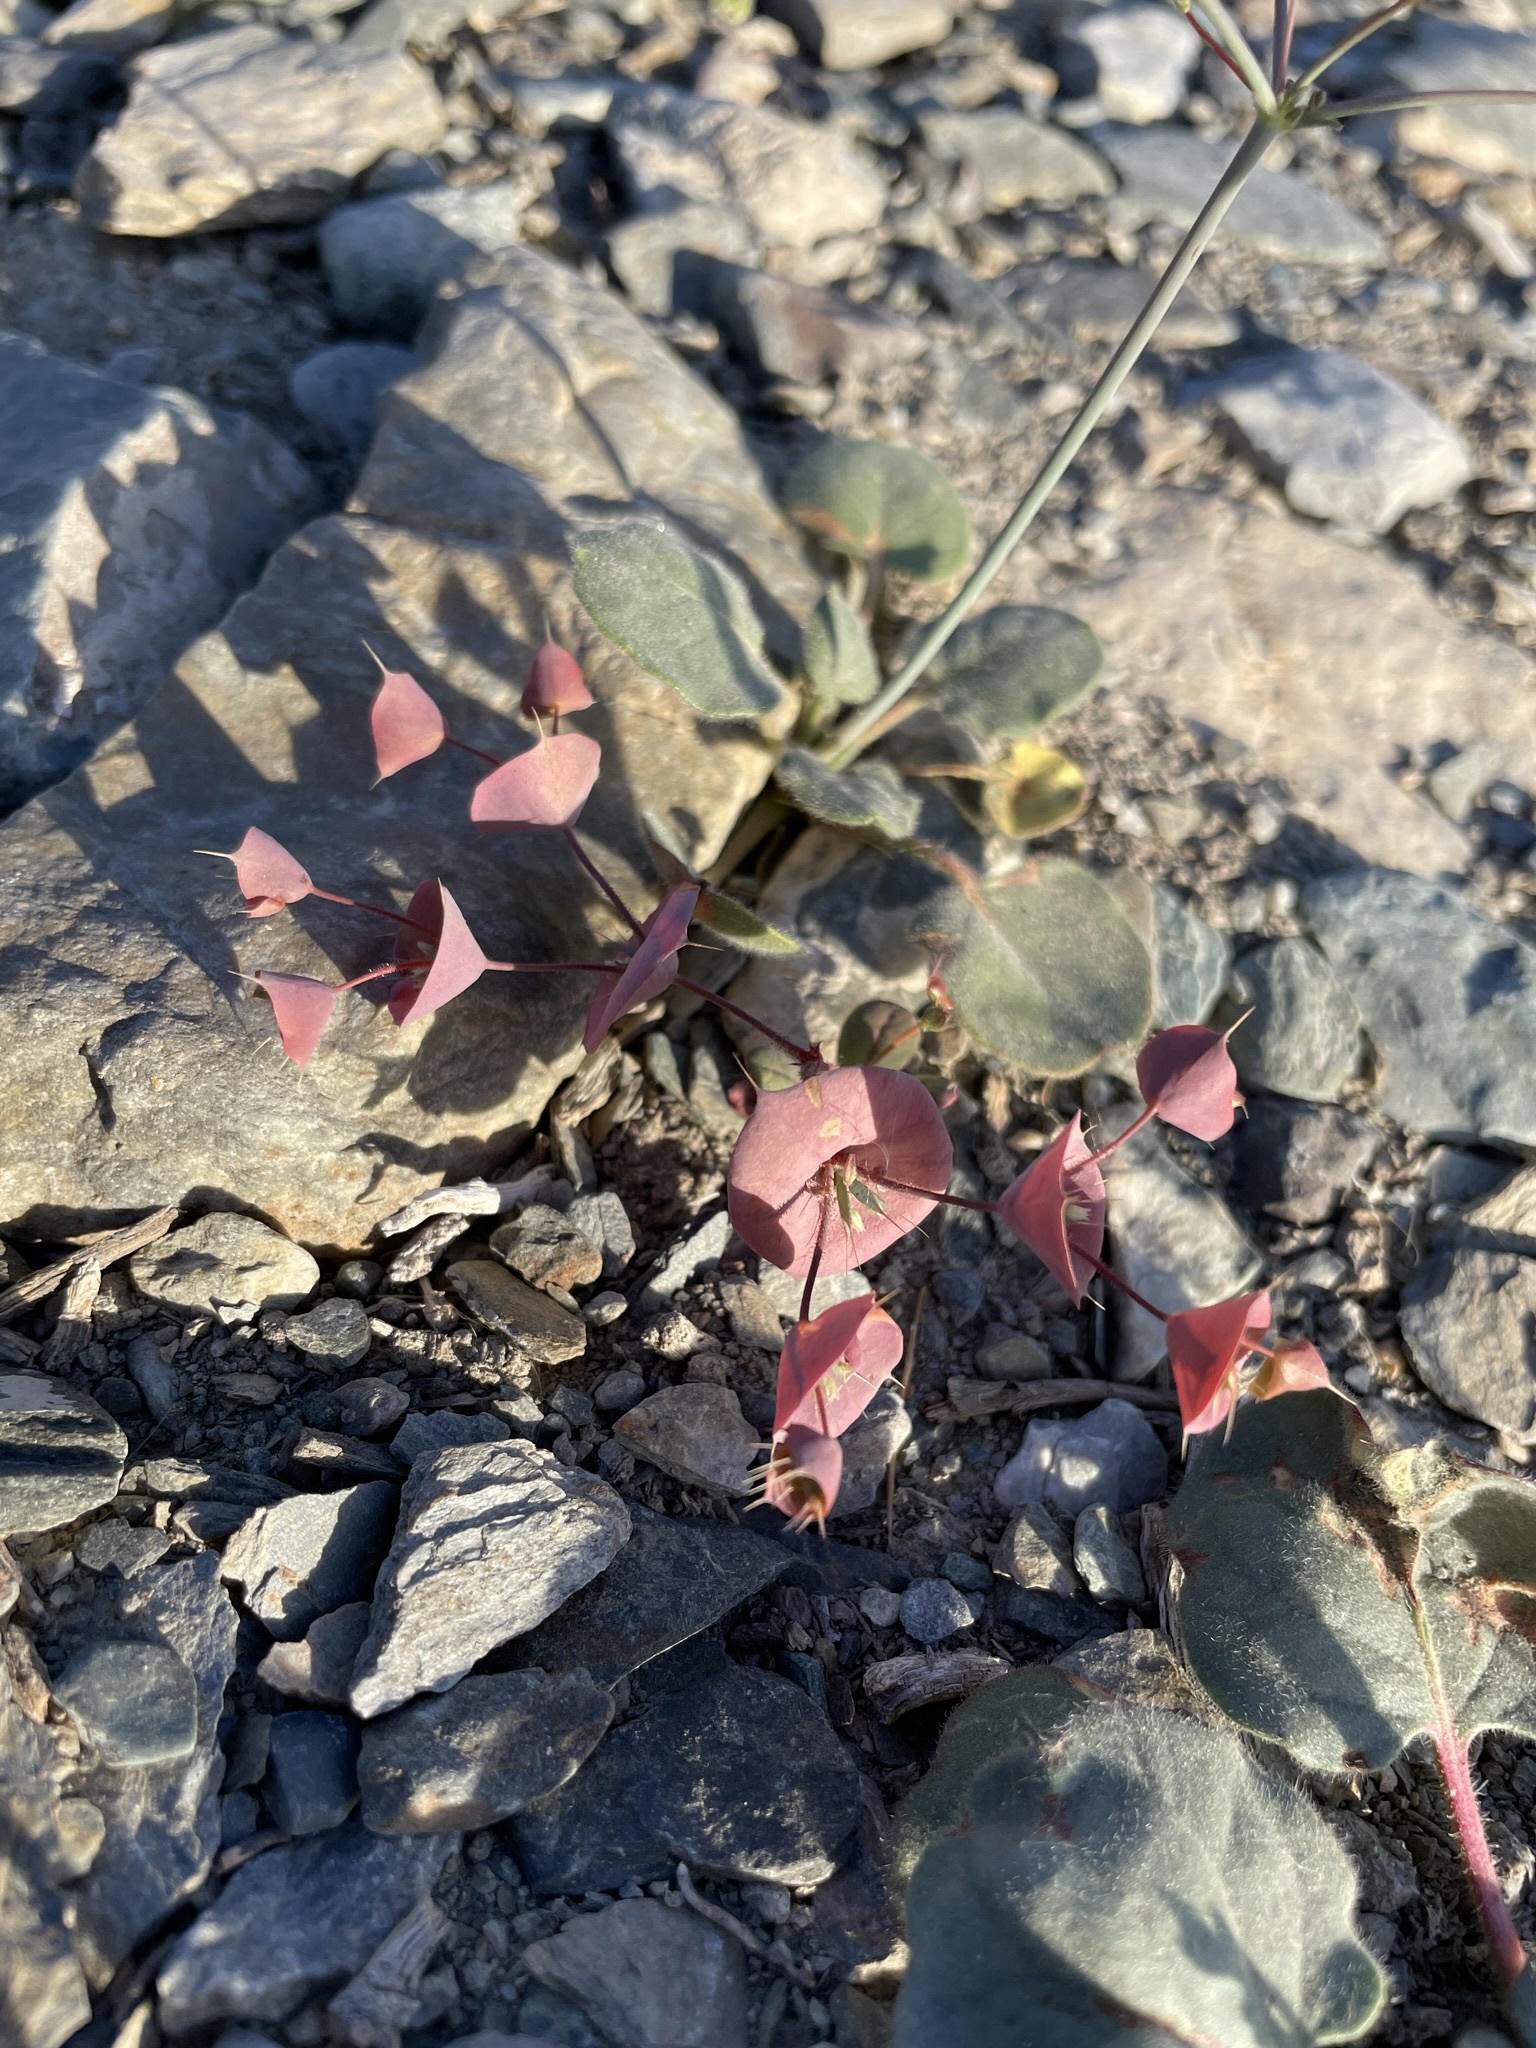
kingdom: Plantae
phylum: Tracheophyta
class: Magnoliopsida
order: Caryophyllales
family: Polygonaceae
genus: Oxytheca
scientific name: Oxytheca perfoliata
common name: Round-leaf puncturebract
